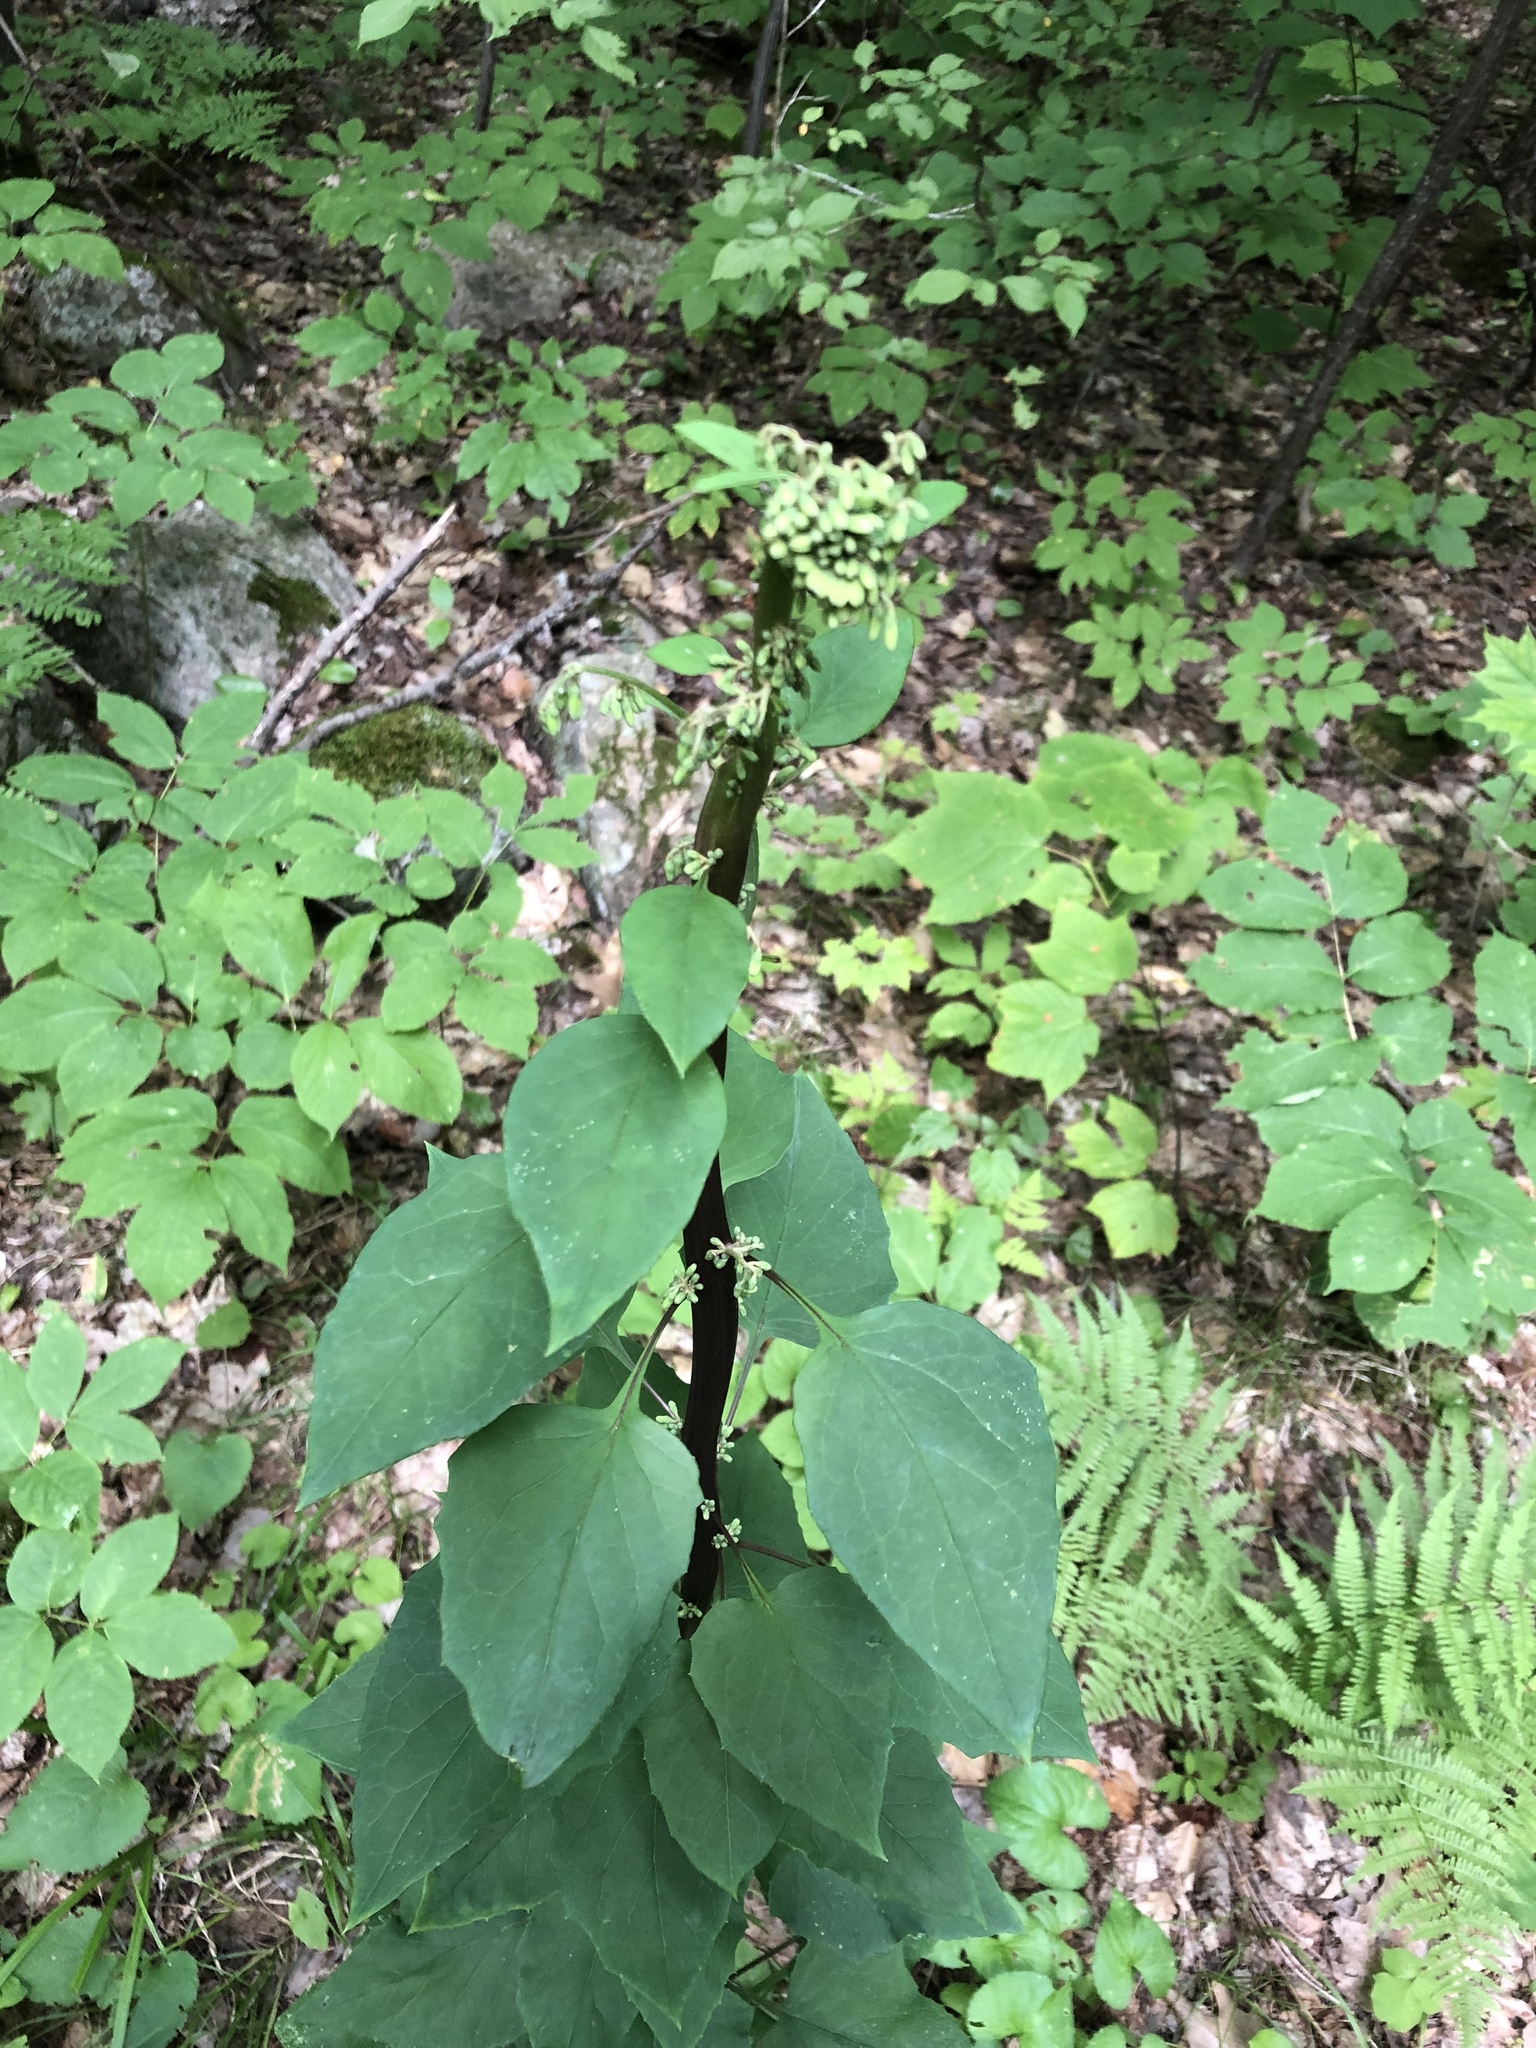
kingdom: Plantae
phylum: Tracheophyta
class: Magnoliopsida
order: Asterales
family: Asteraceae
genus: Nabalus
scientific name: Nabalus altissima
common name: Tall rattlesnakeroot
